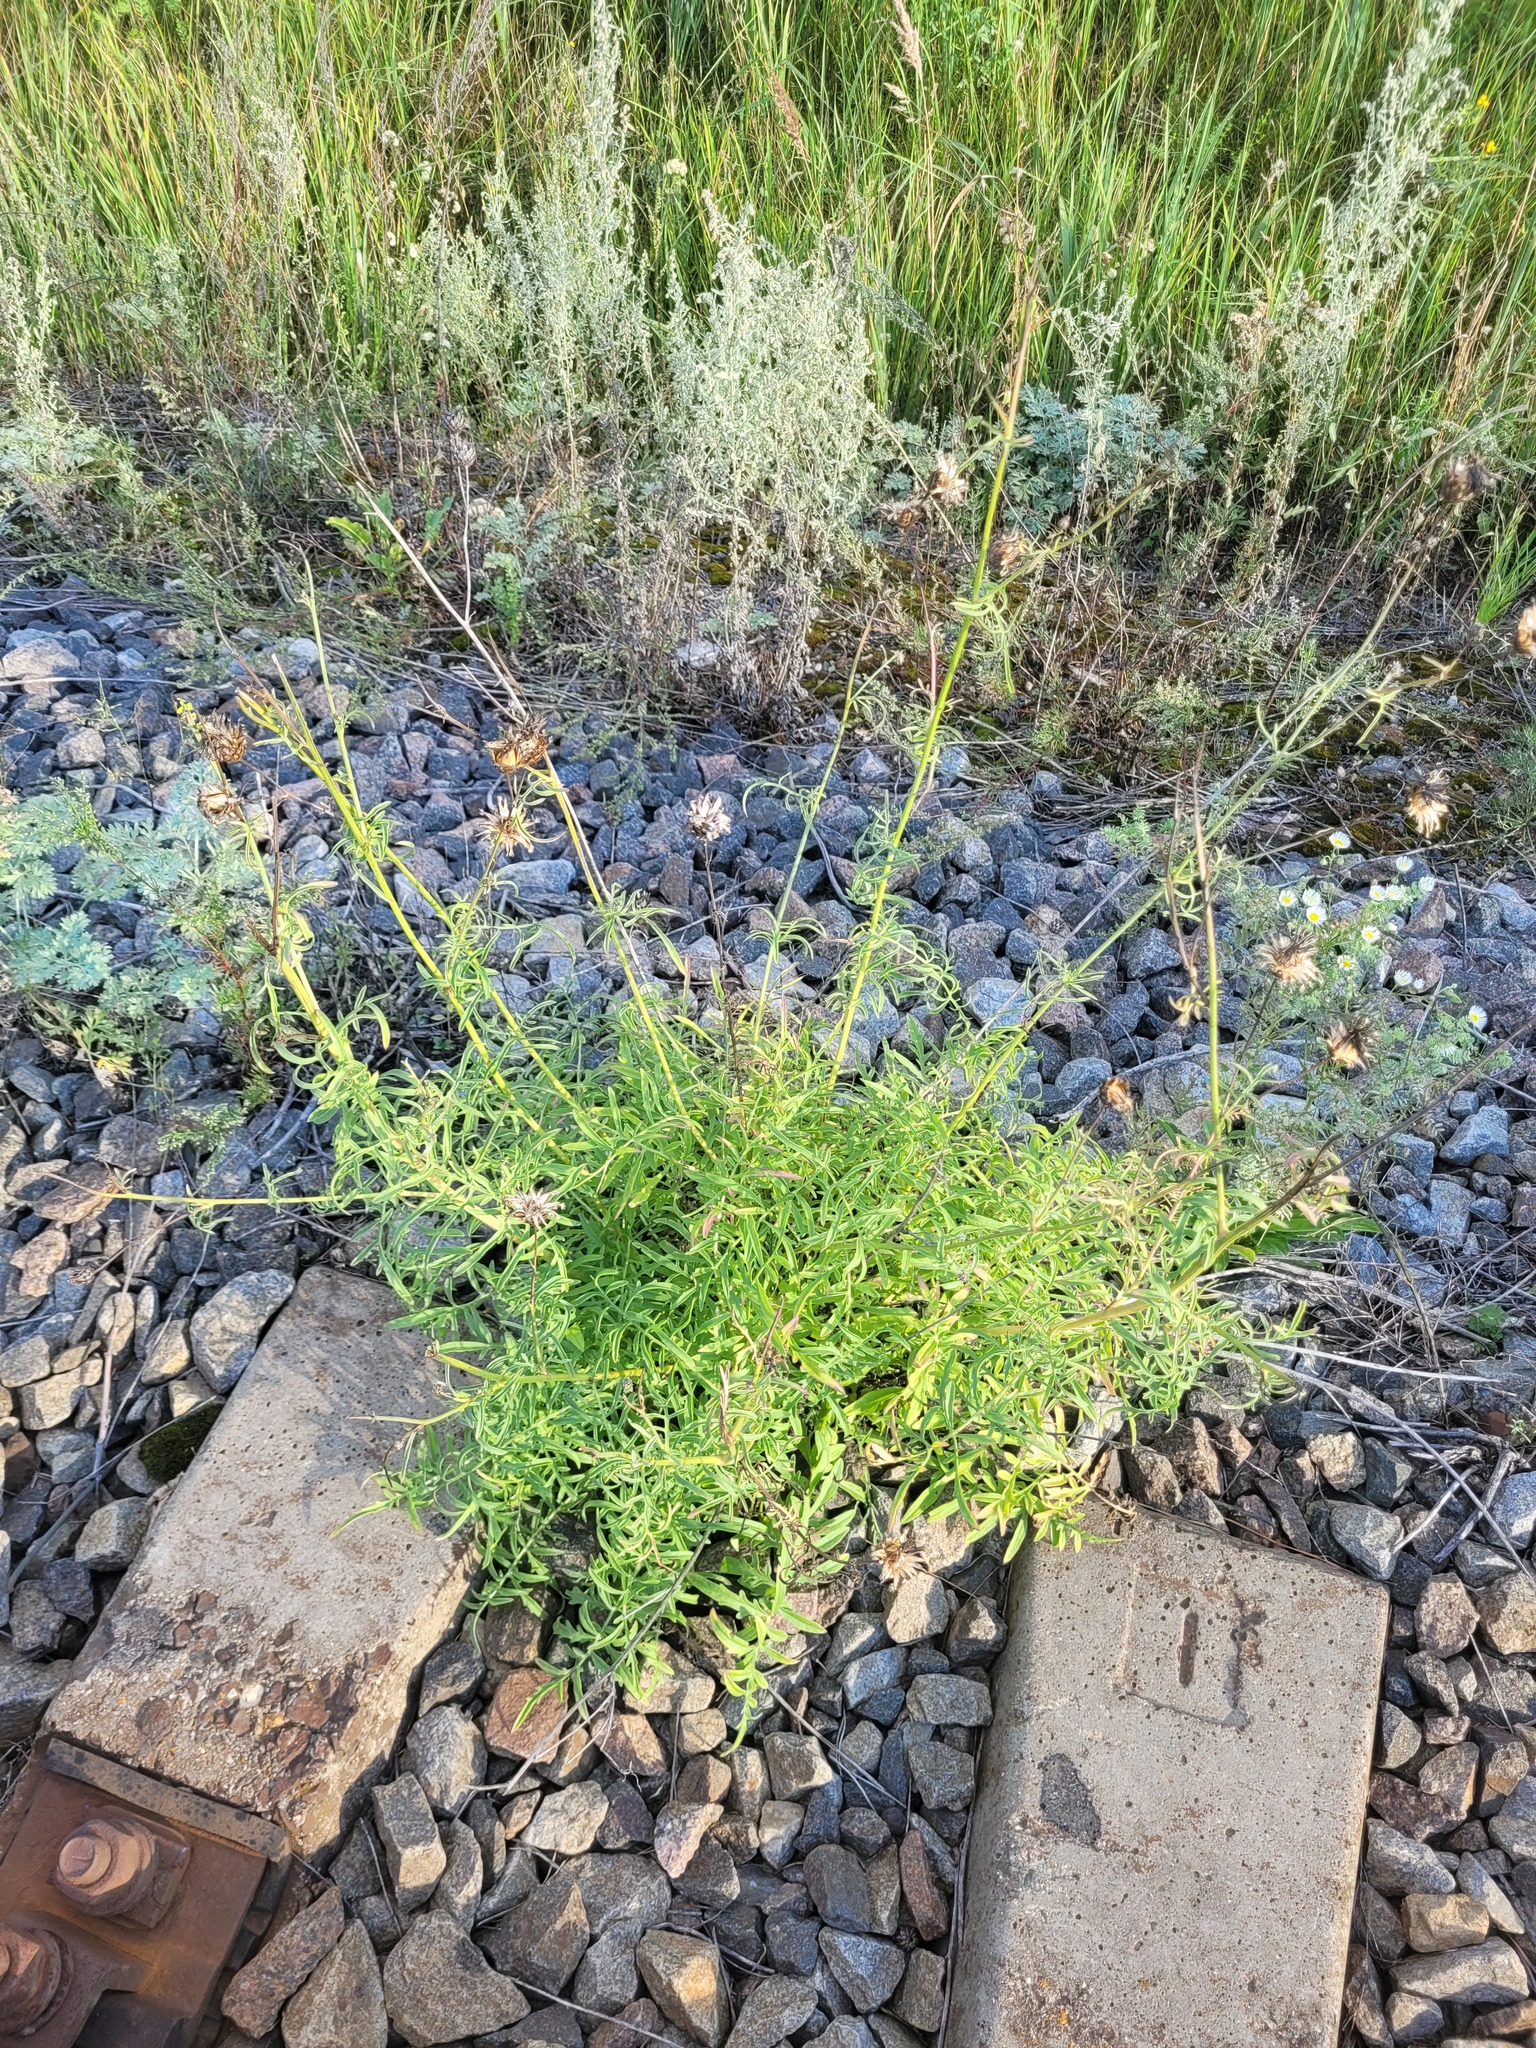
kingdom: Plantae
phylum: Tracheophyta
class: Magnoliopsida
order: Asterales
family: Asteraceae
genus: Centaurea
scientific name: Centaurea scabiosa
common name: Greater knapweed
